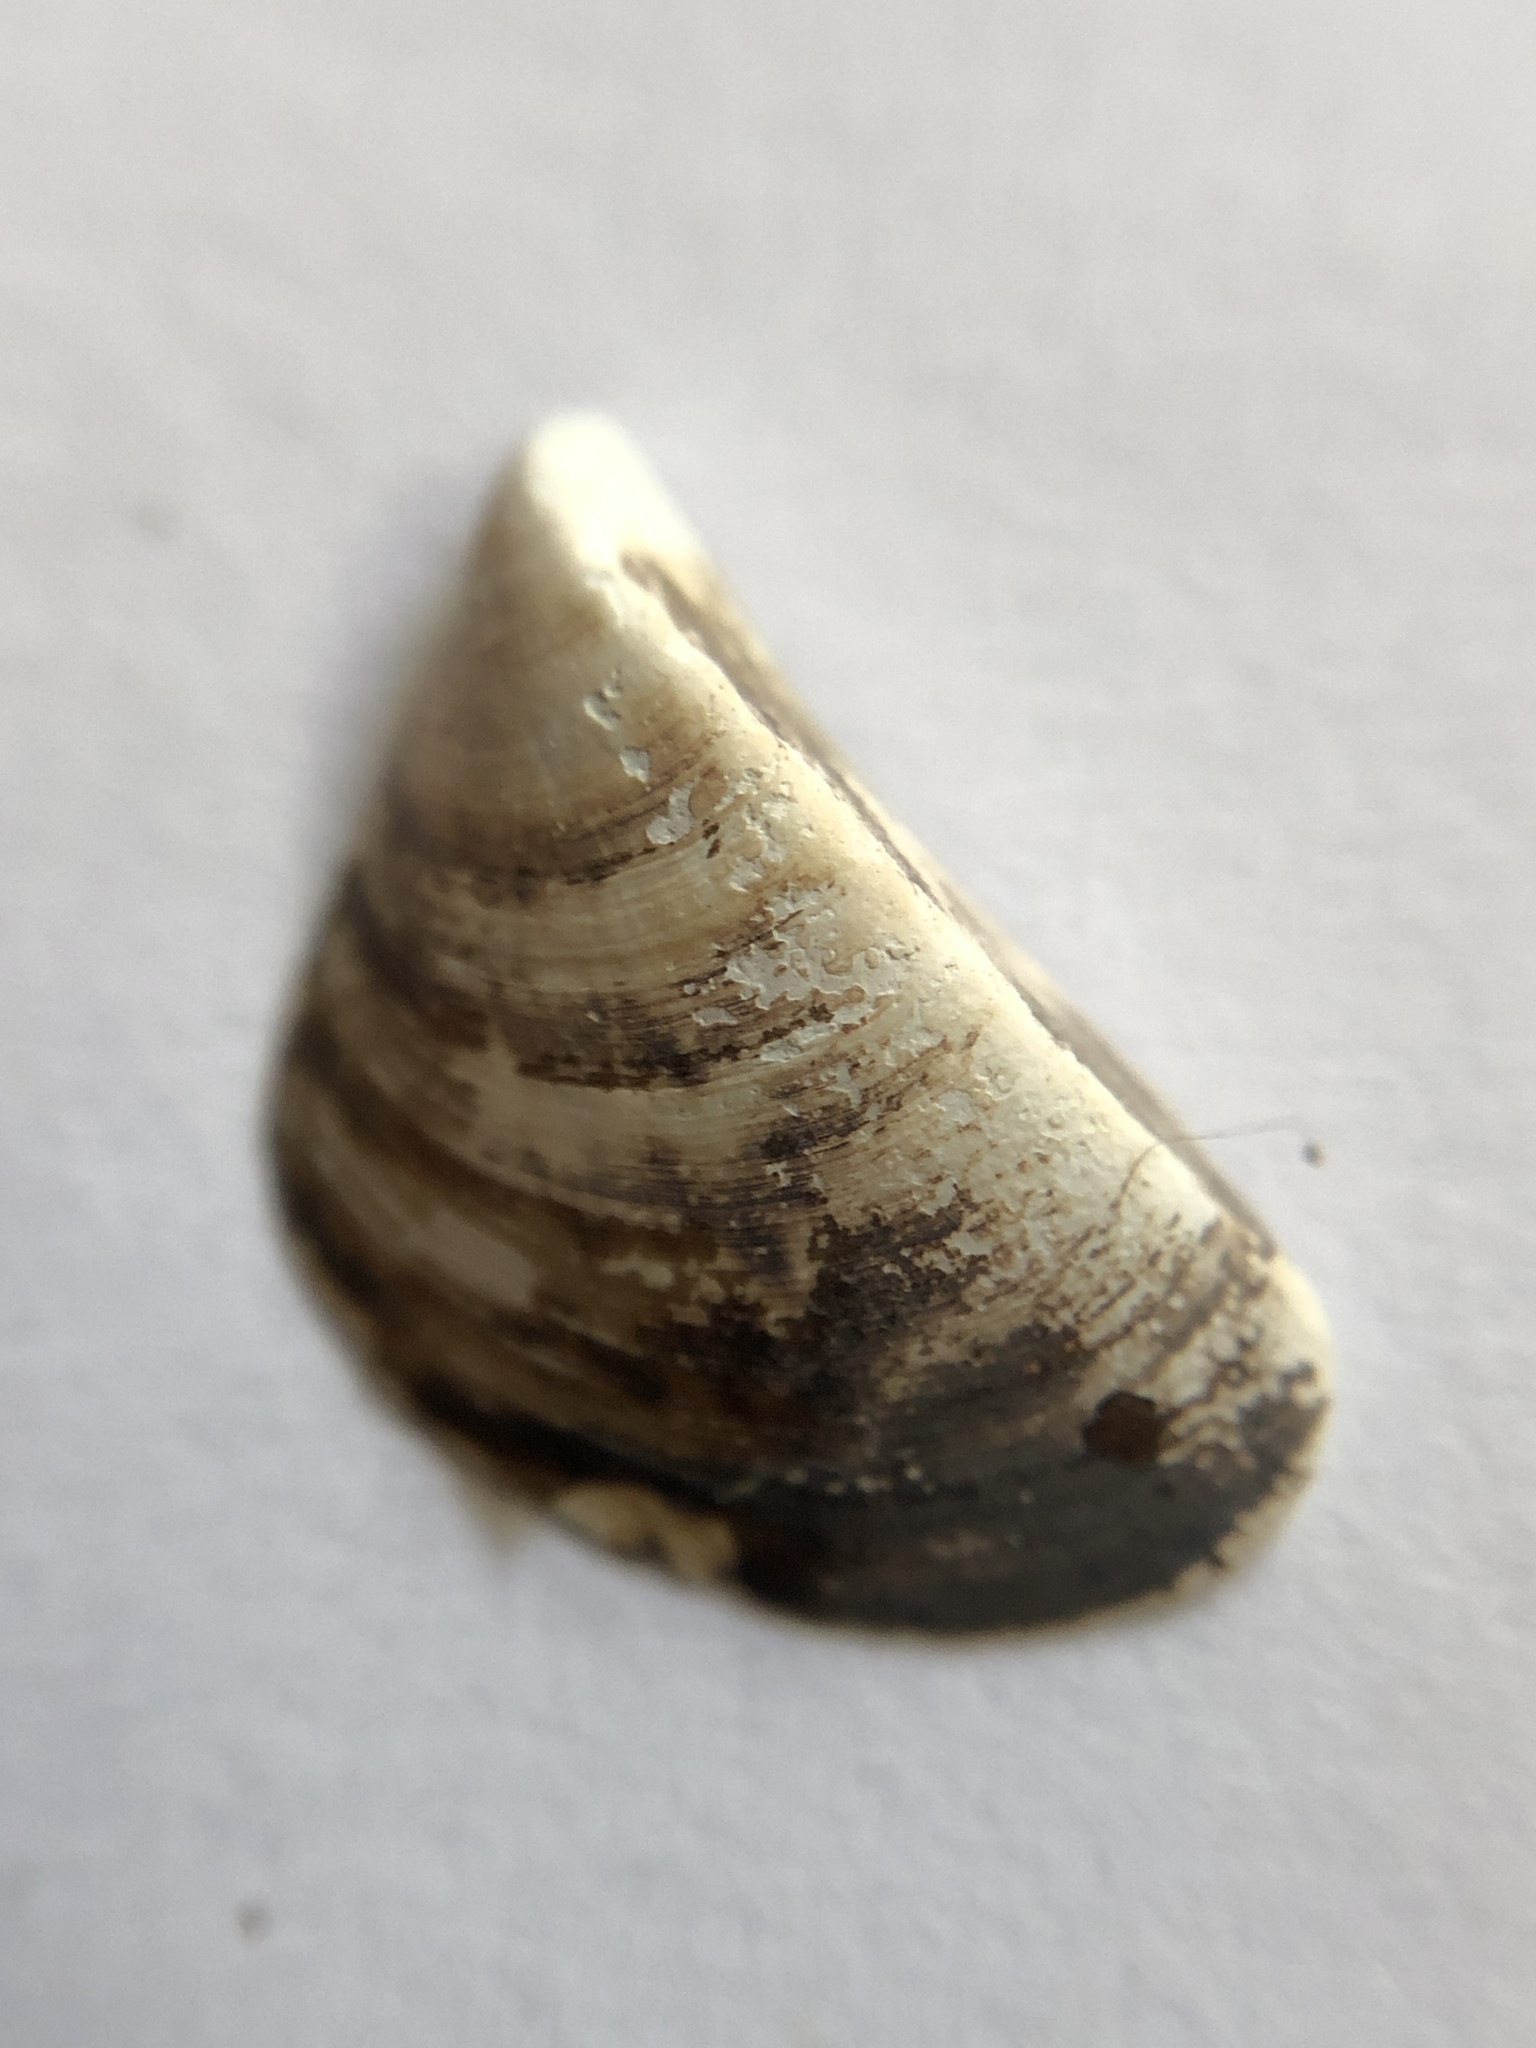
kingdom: Animalia
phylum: Mollusca
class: Bivalvia
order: Myida
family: Dreissenidae
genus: Dreissena
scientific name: Dreissena polymorpha
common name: Zebra mussel
